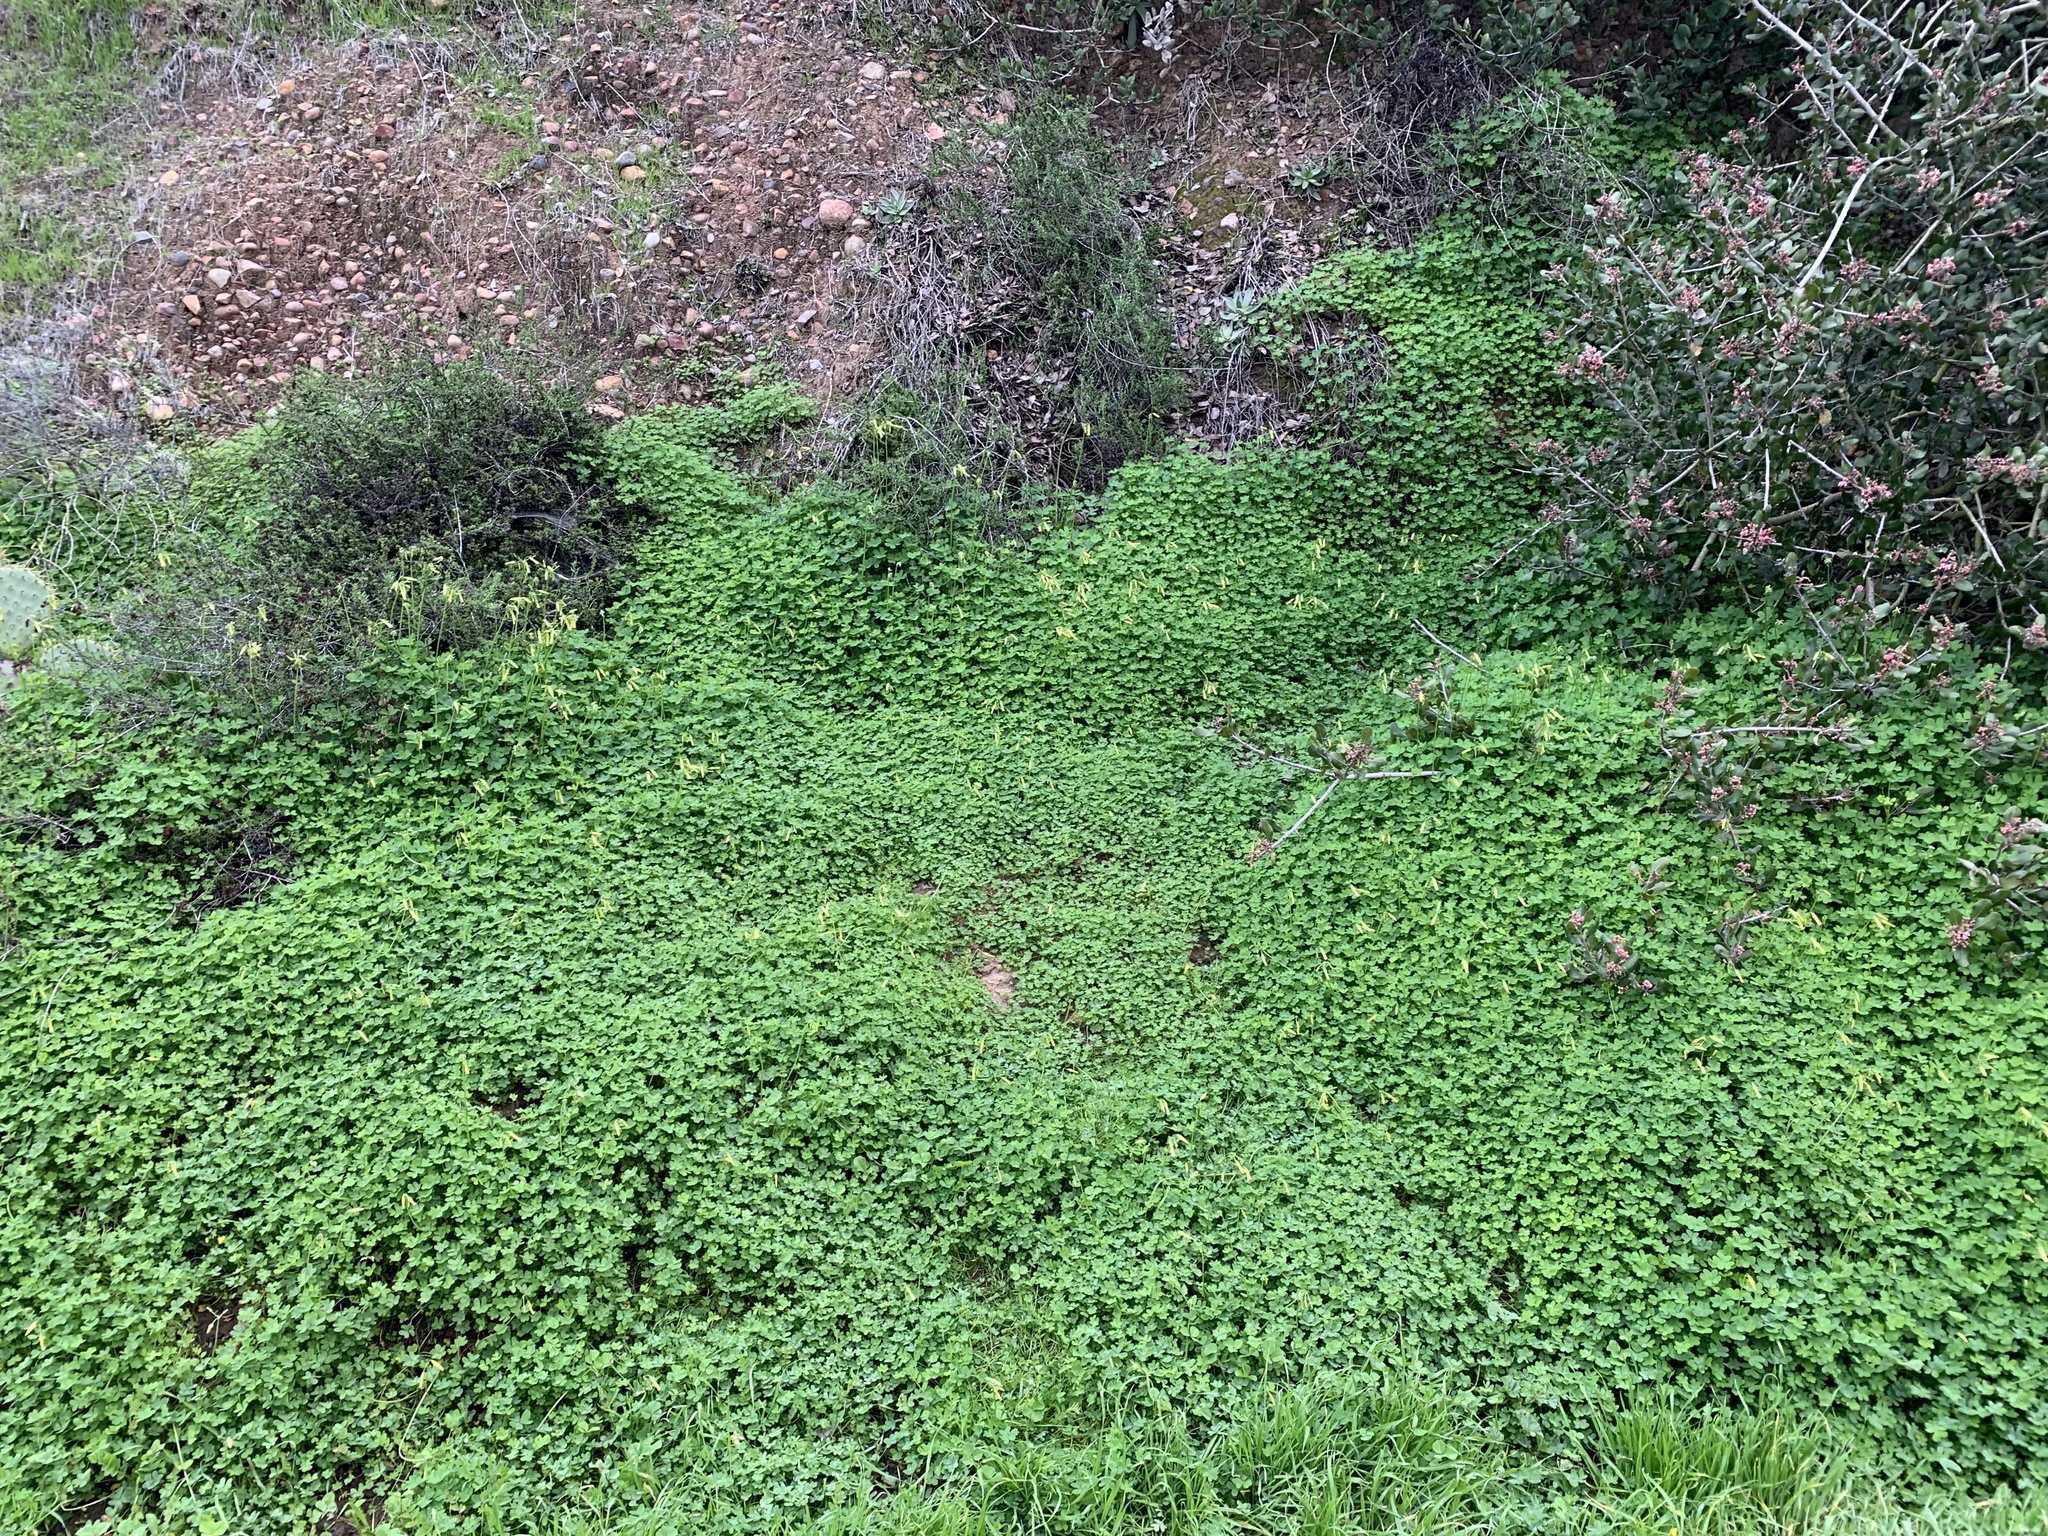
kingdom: Plantae
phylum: Tracheophyta
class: Magnoliopsida
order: Oxalidales
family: Oxalidaceae
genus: Oxalis
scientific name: Oxalis pes-caprae
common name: Bermuda-buttercup
